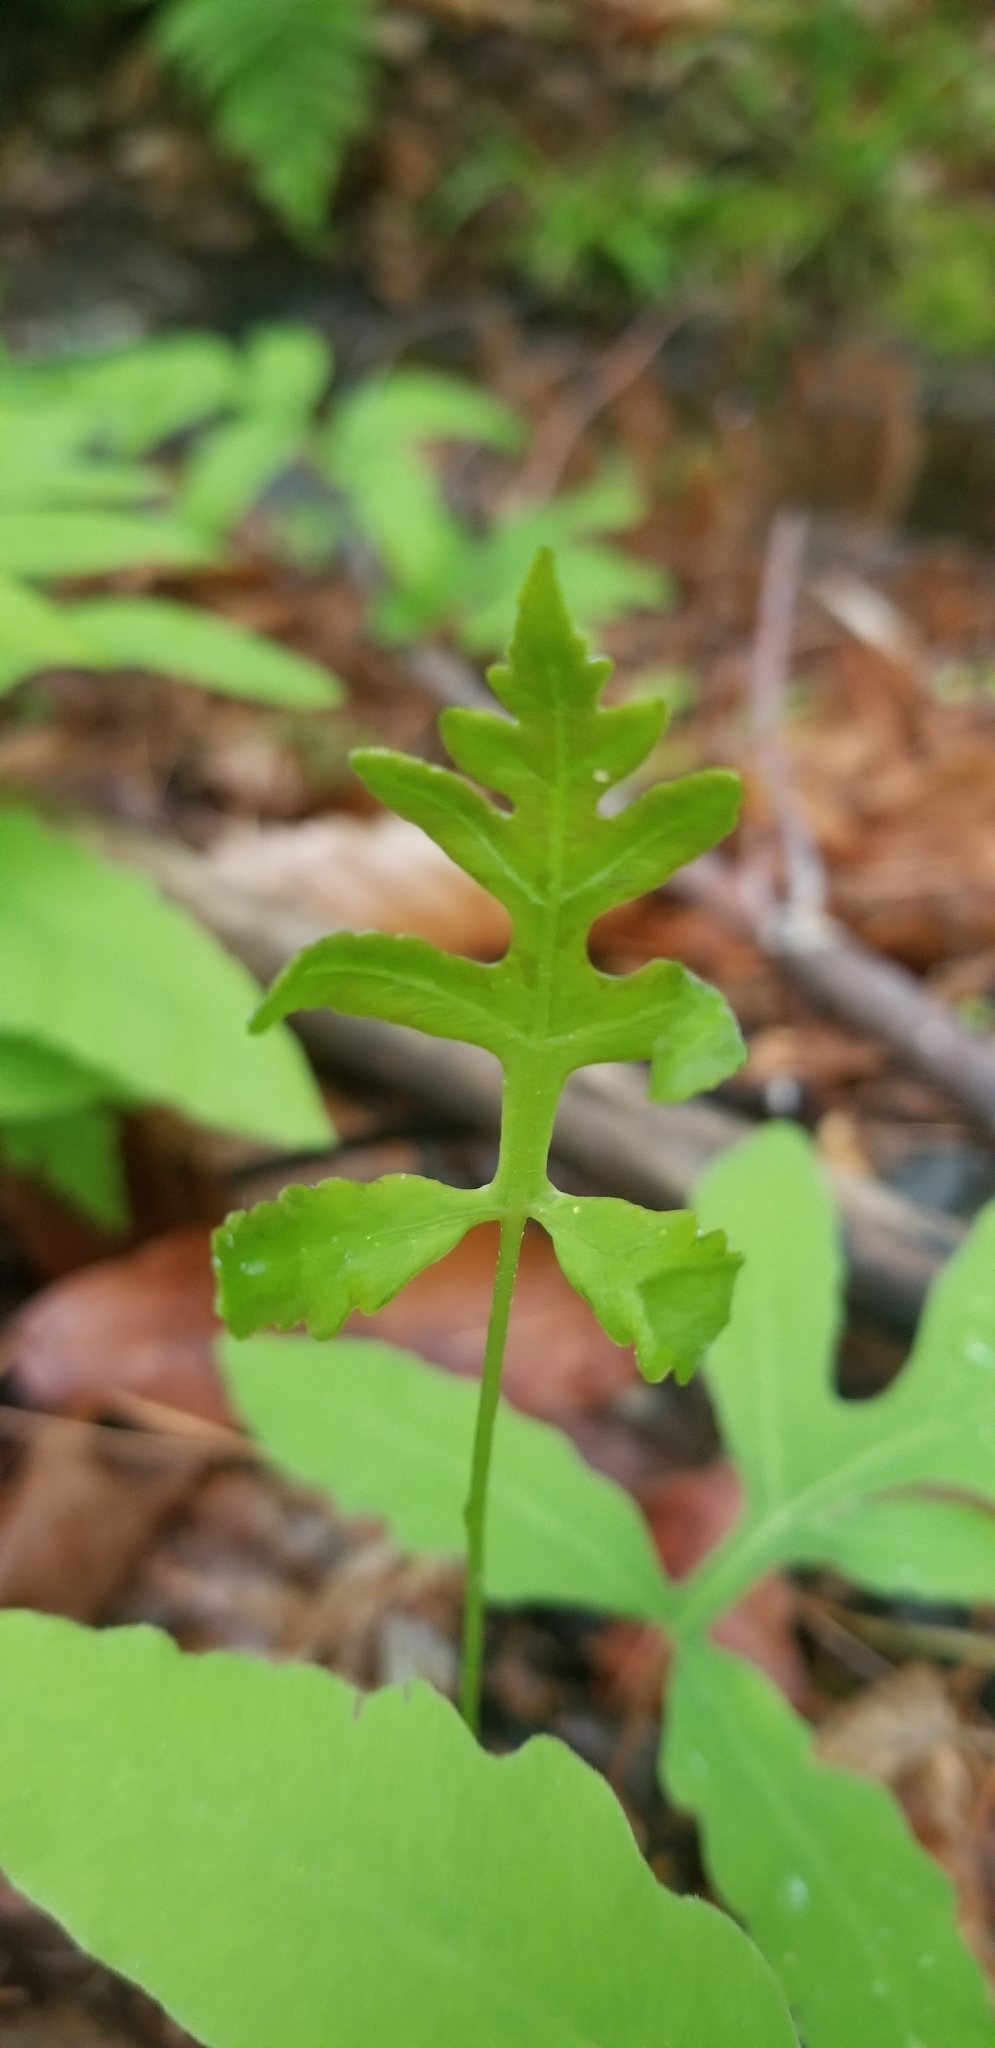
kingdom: Plantae
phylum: Tracheophyta
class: Polypodiopsida
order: Polypodiales
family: Onocleaceae
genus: Onoclea
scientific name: Onoclea sensibilis
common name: Sensitive fern
